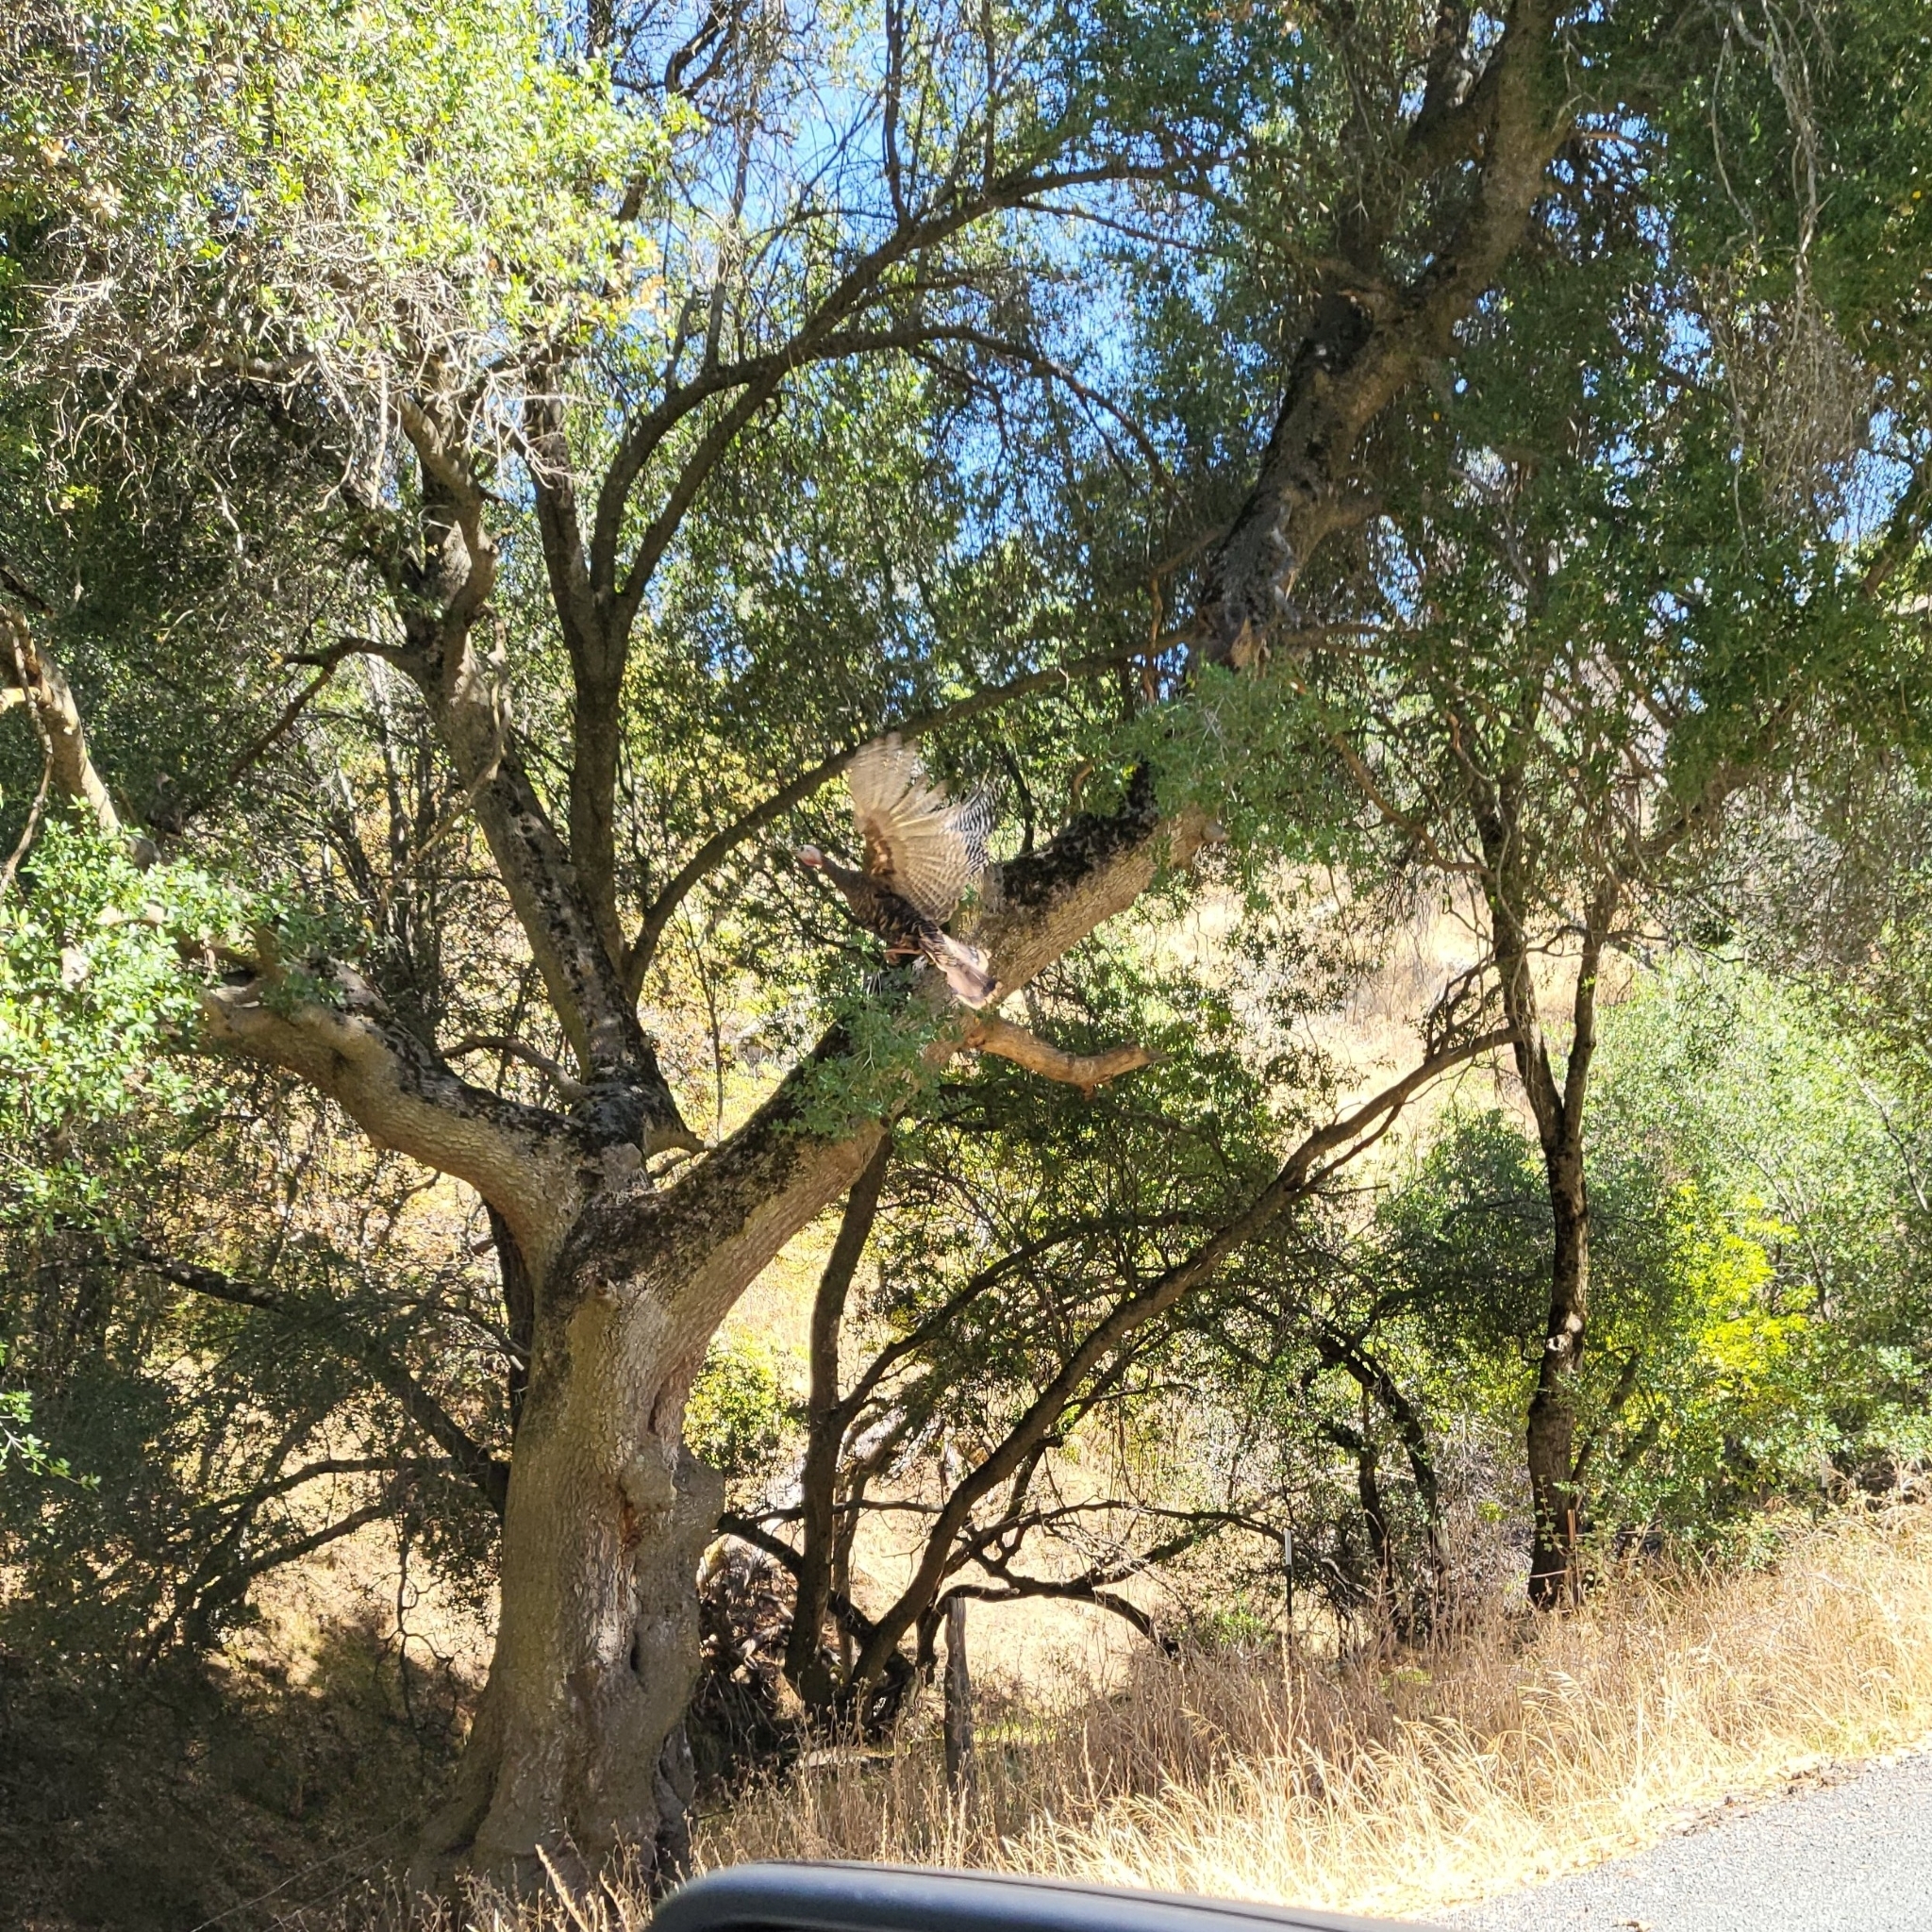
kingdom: Animalia
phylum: Chordata
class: Aves
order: Galliformes
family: Phasianidae
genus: Meleagris
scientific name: Meleagris gallopavo
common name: Wild turkey
